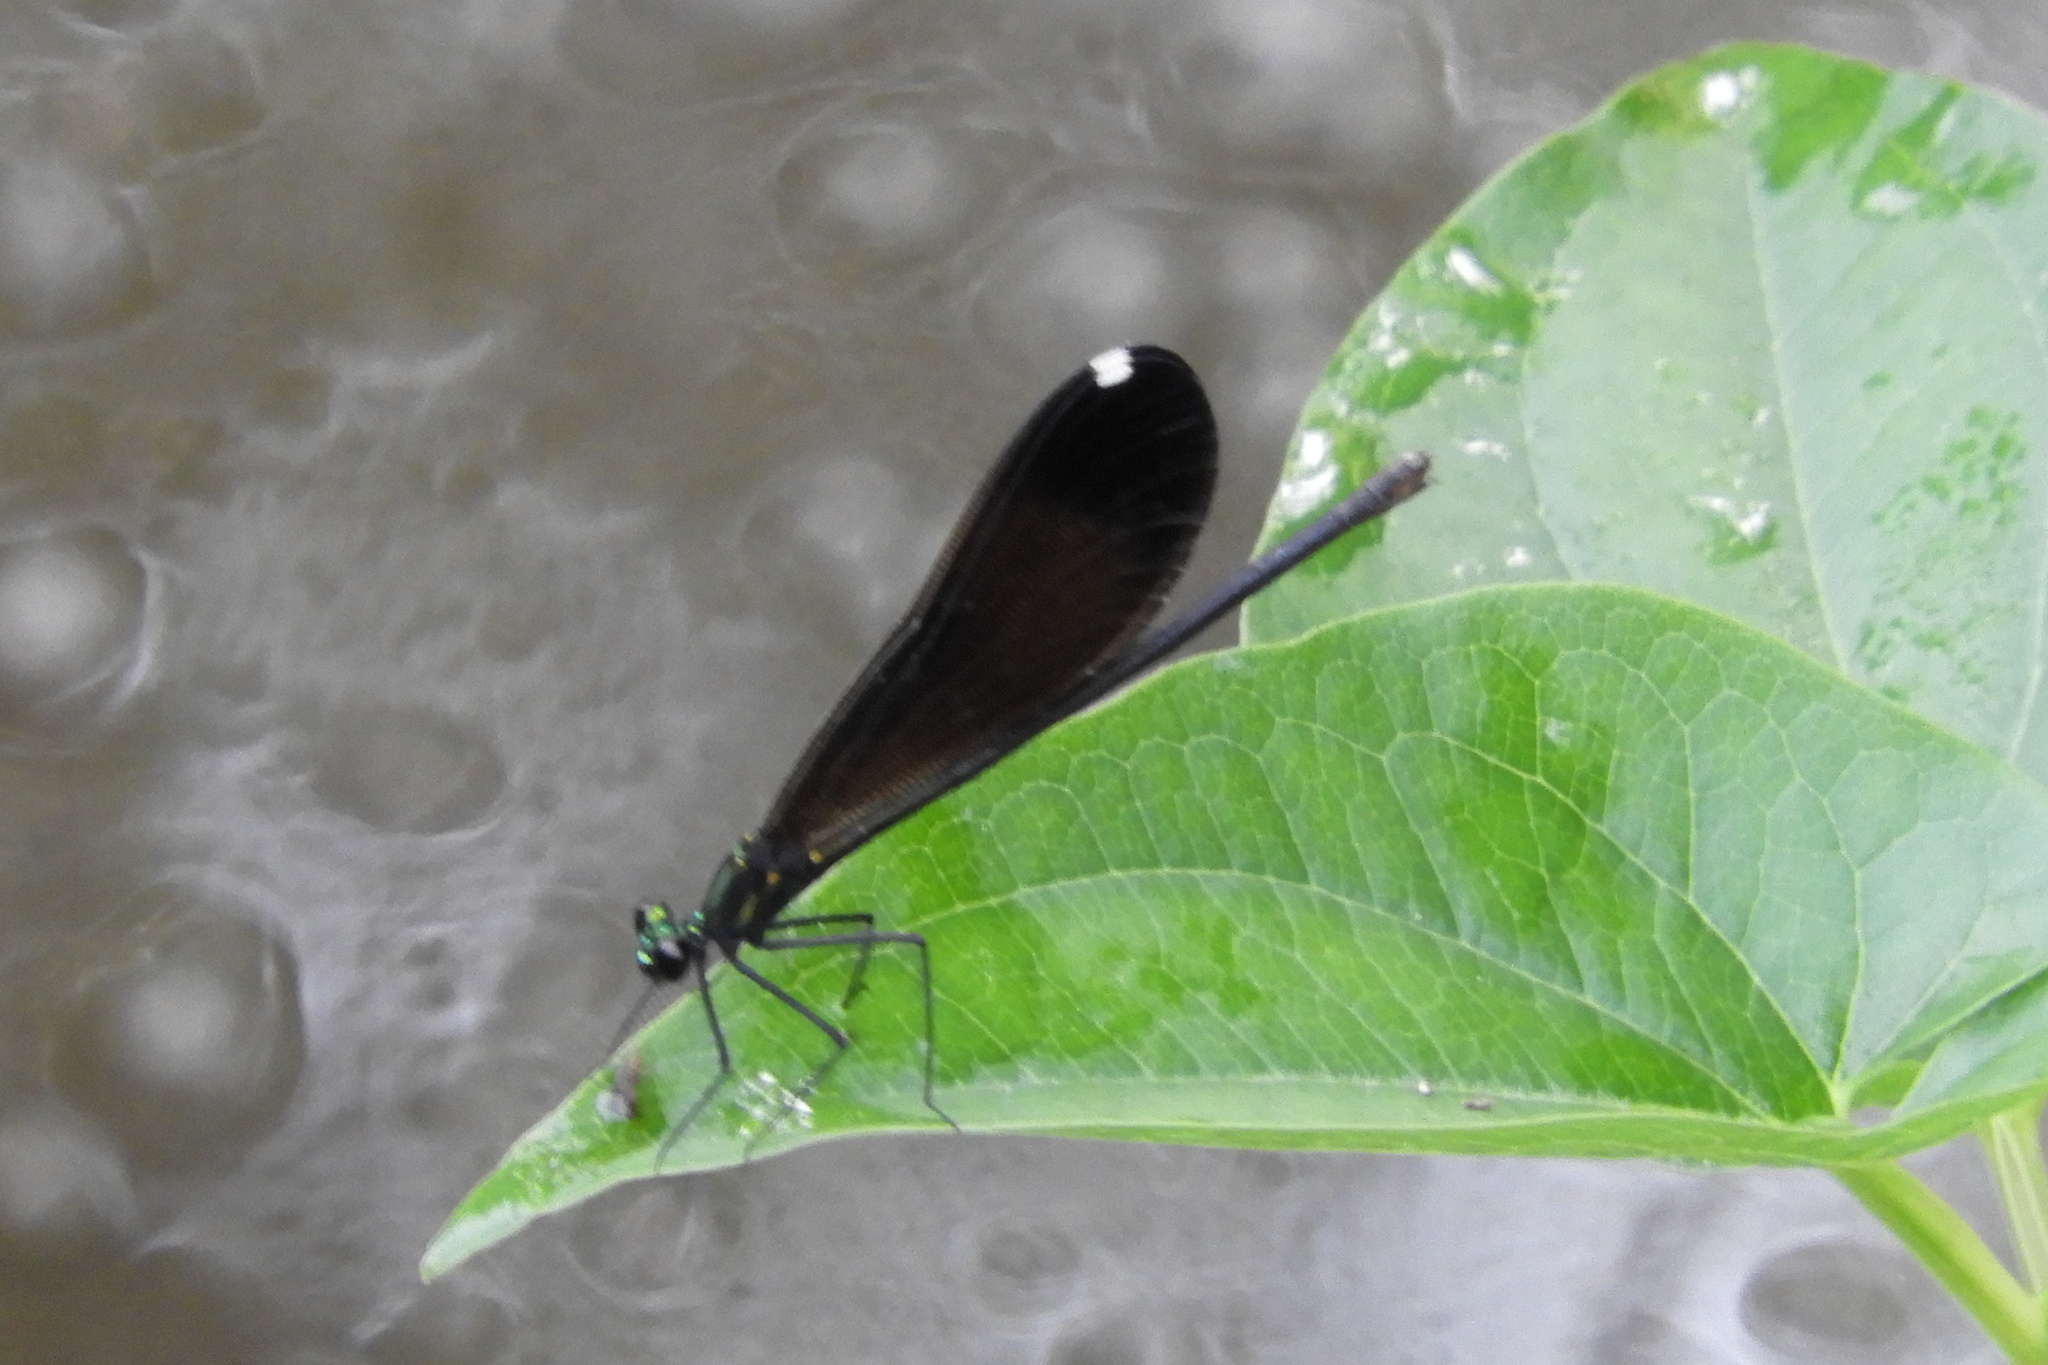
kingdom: Animalia
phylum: Arthropoda
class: Insecta
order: Odonata
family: Calopterygidae
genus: Calopteryx
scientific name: Calopteryx maculata
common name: Ebony jewelwing
